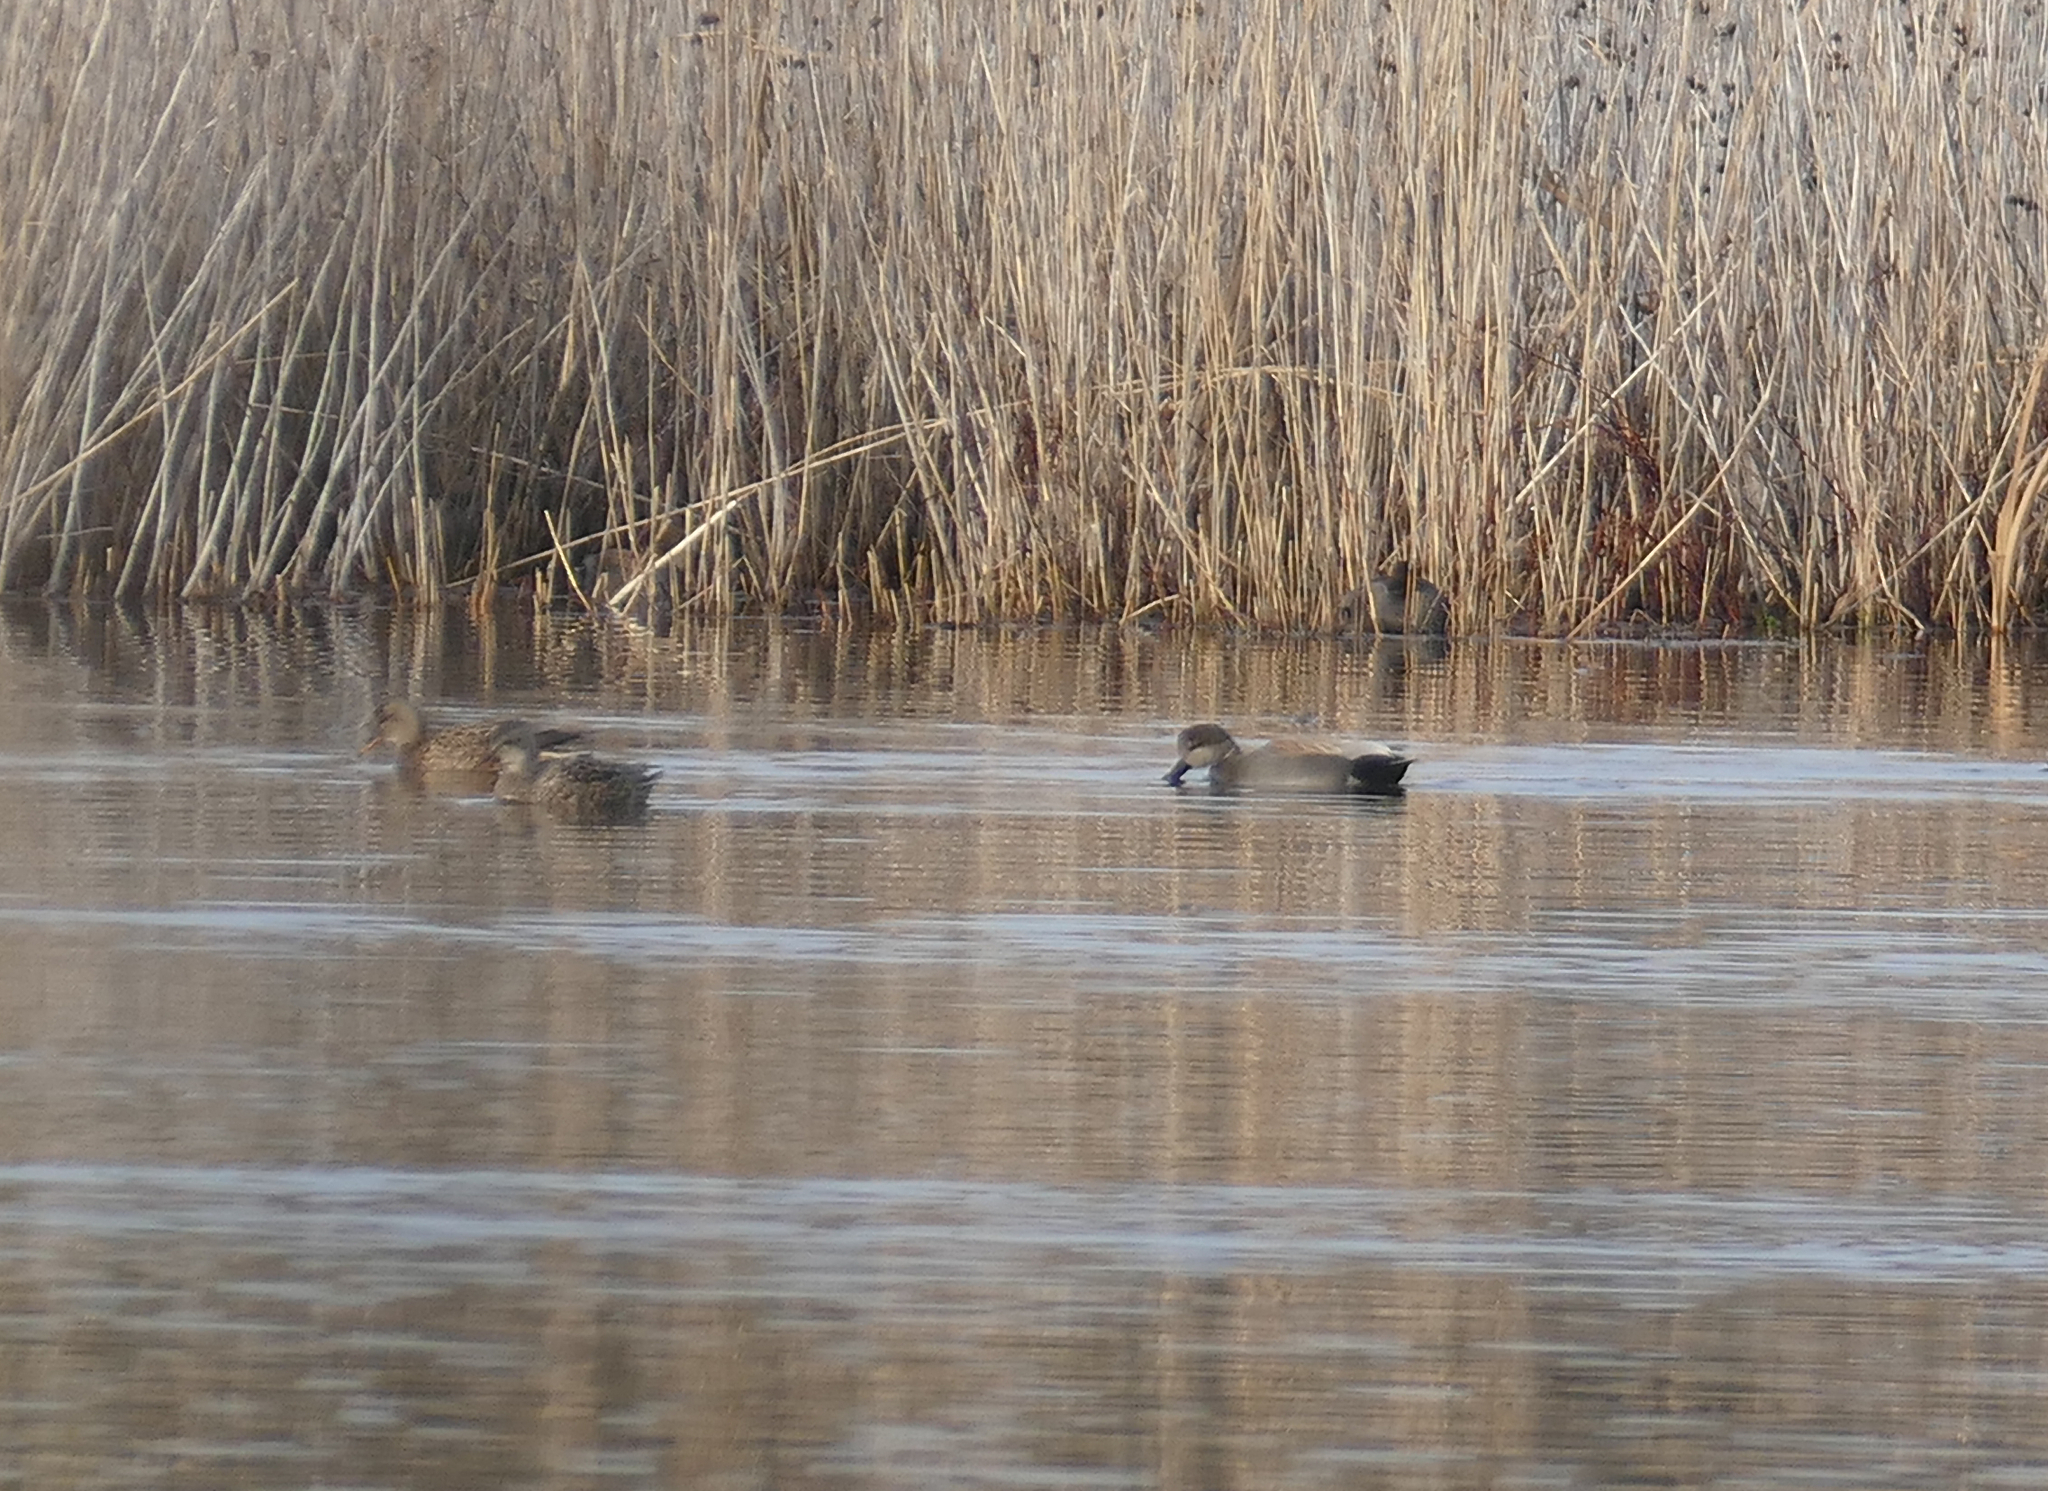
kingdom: Animalia
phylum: Chordata
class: Aves
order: Anseriformes
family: Anatidae
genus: Mareca
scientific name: Mareca strepera
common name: Gadwall
